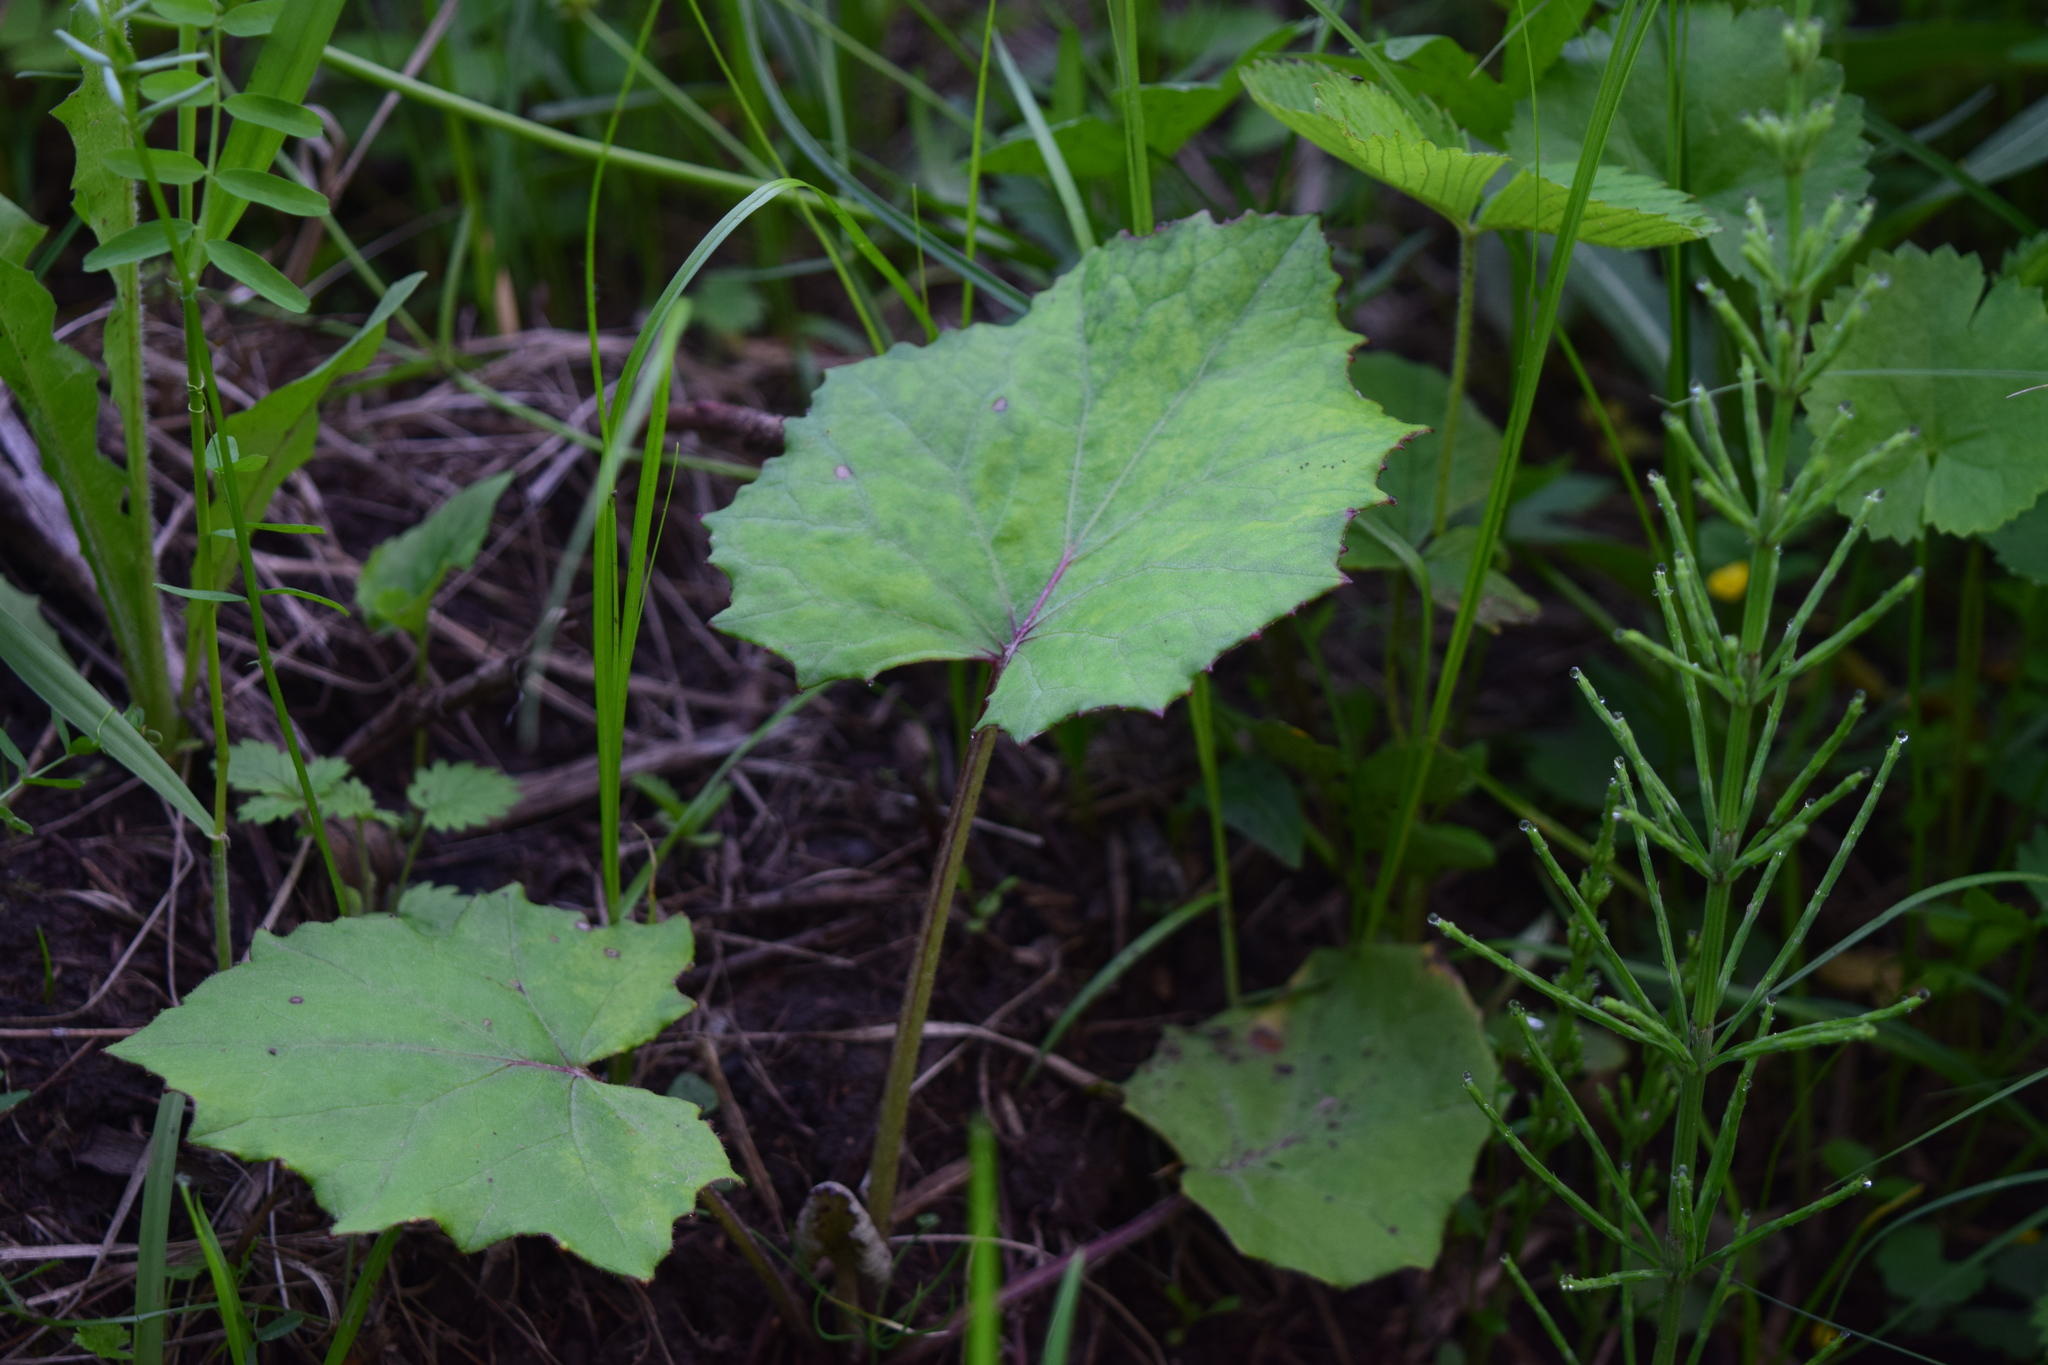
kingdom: Plantae
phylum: Tracheophyta
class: Magnoliopsida
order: Asterales
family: Asteraceae
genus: Tussilago
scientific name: Tussilago farfara
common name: Coltsfoot
